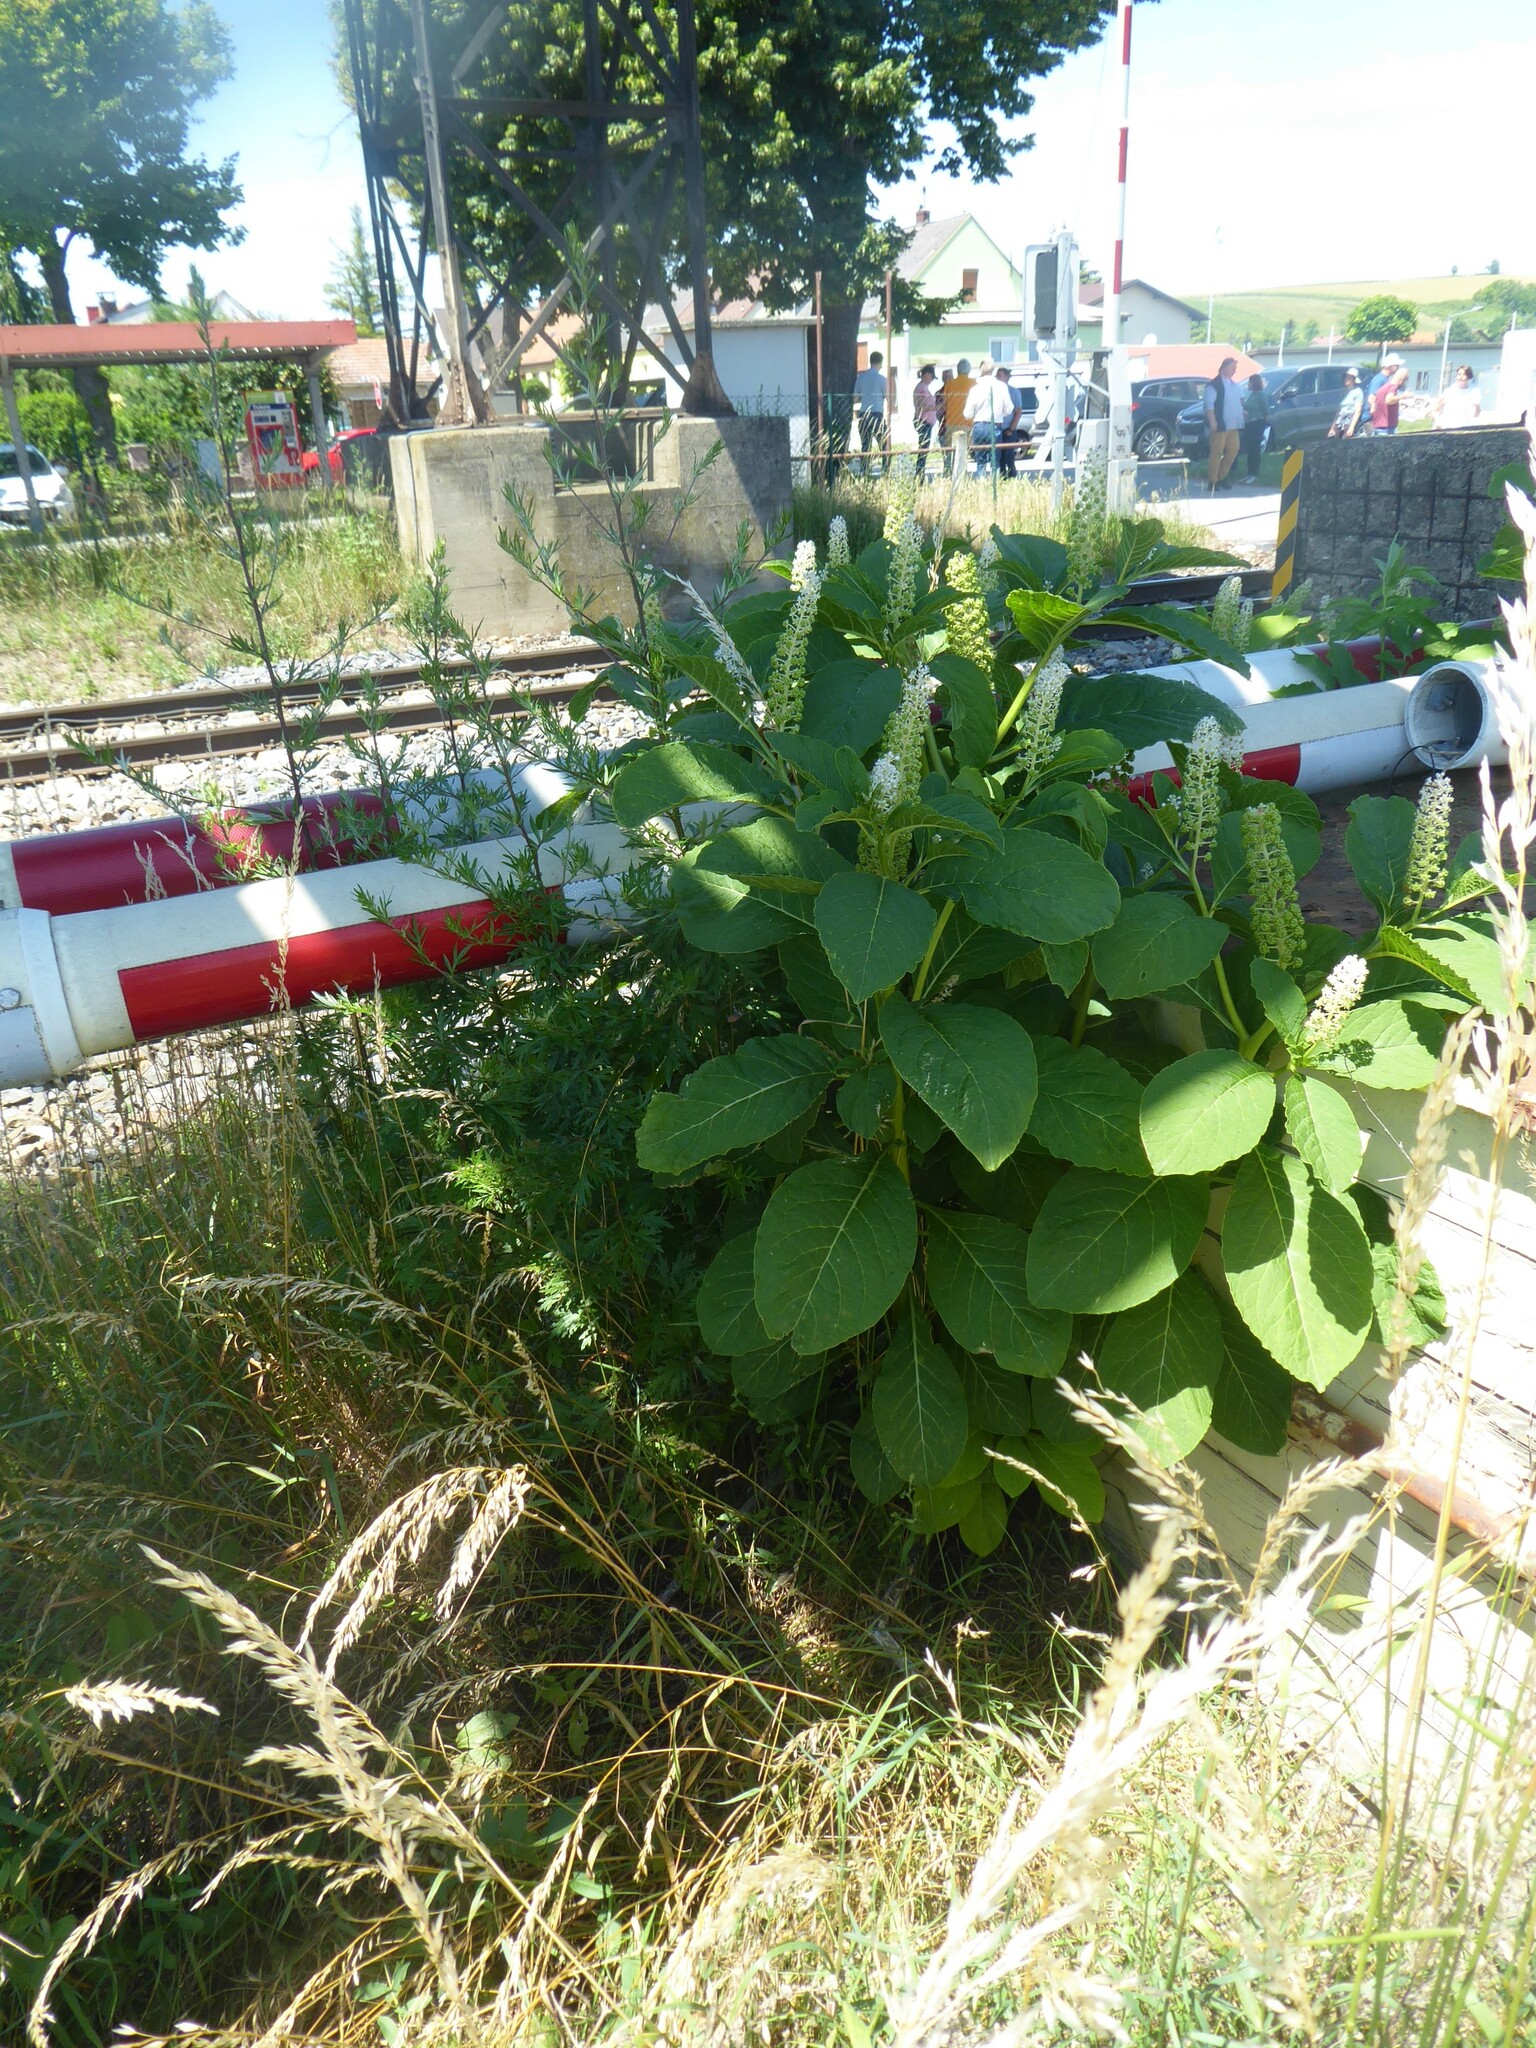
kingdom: Plantae
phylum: Tracheophyta
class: Magnoliopsida
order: Caryophyllales
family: Phytolaccaceae
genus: Phytolacca
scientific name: Phytolacca acinosa
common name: Indian pokeweed
